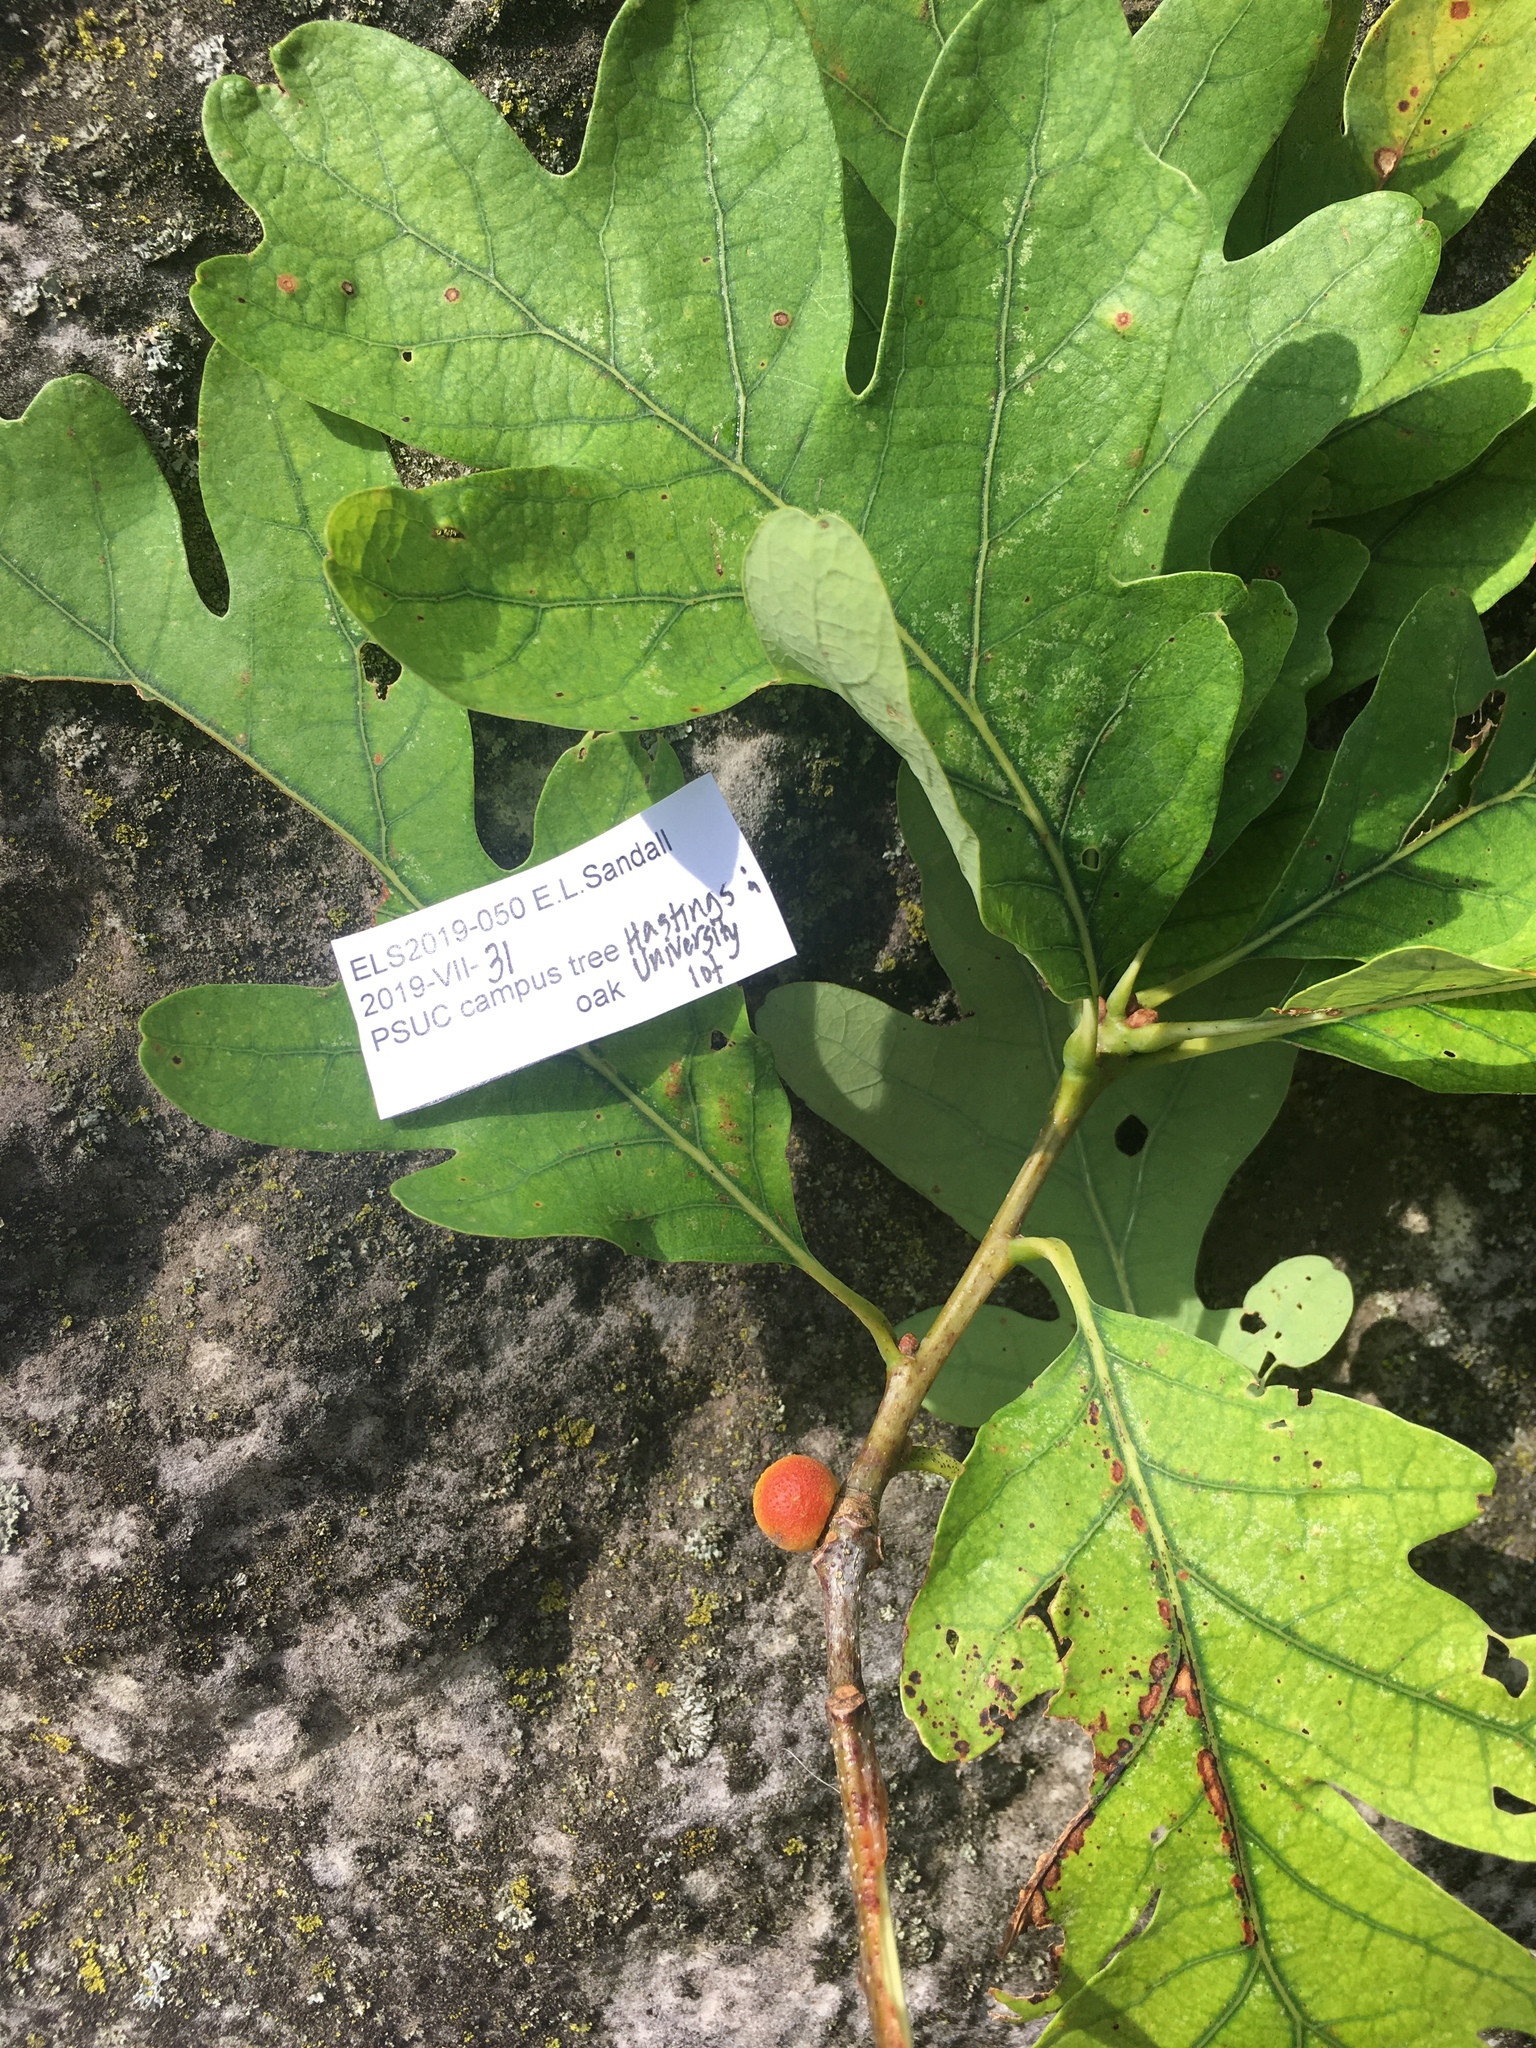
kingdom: Animalia
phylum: Arthropoda
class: Insecta
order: Hymenoptera
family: Cynipidae
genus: Disholcaspis
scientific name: Disholcaspis quercusglobulus
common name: Round bullet gall wasp
